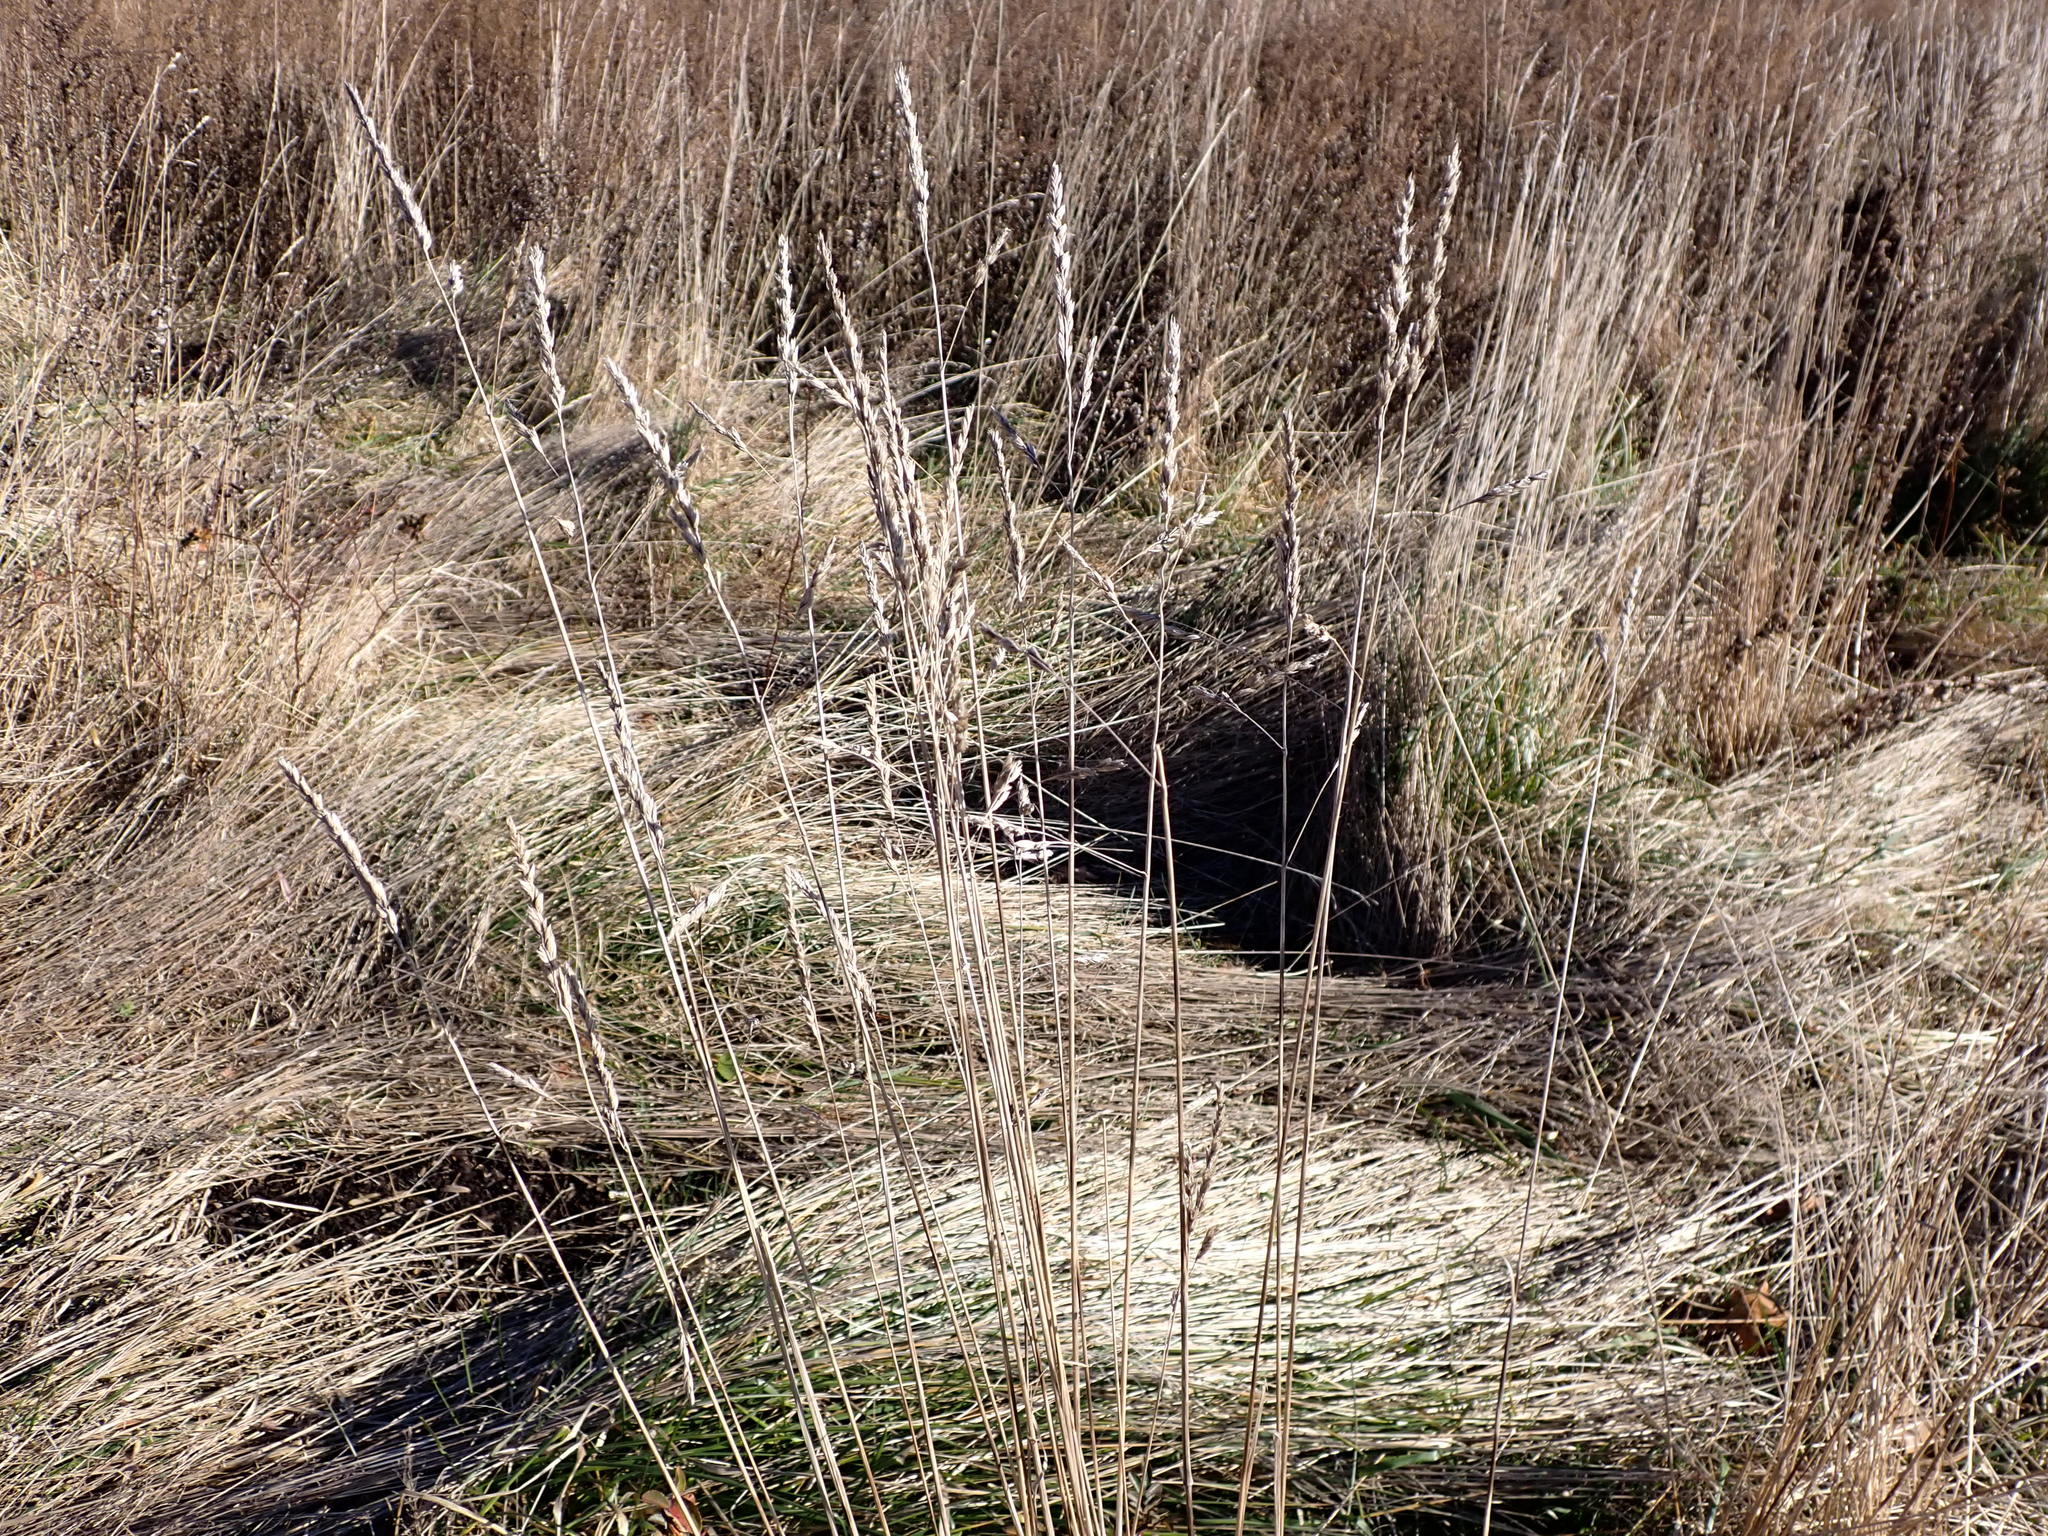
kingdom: Plantae
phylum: Tracheophyta
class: Liliopsida
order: Poales
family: Poaceae
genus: Dactylis
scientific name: Dactylis glomerata
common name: Orchardgrass
